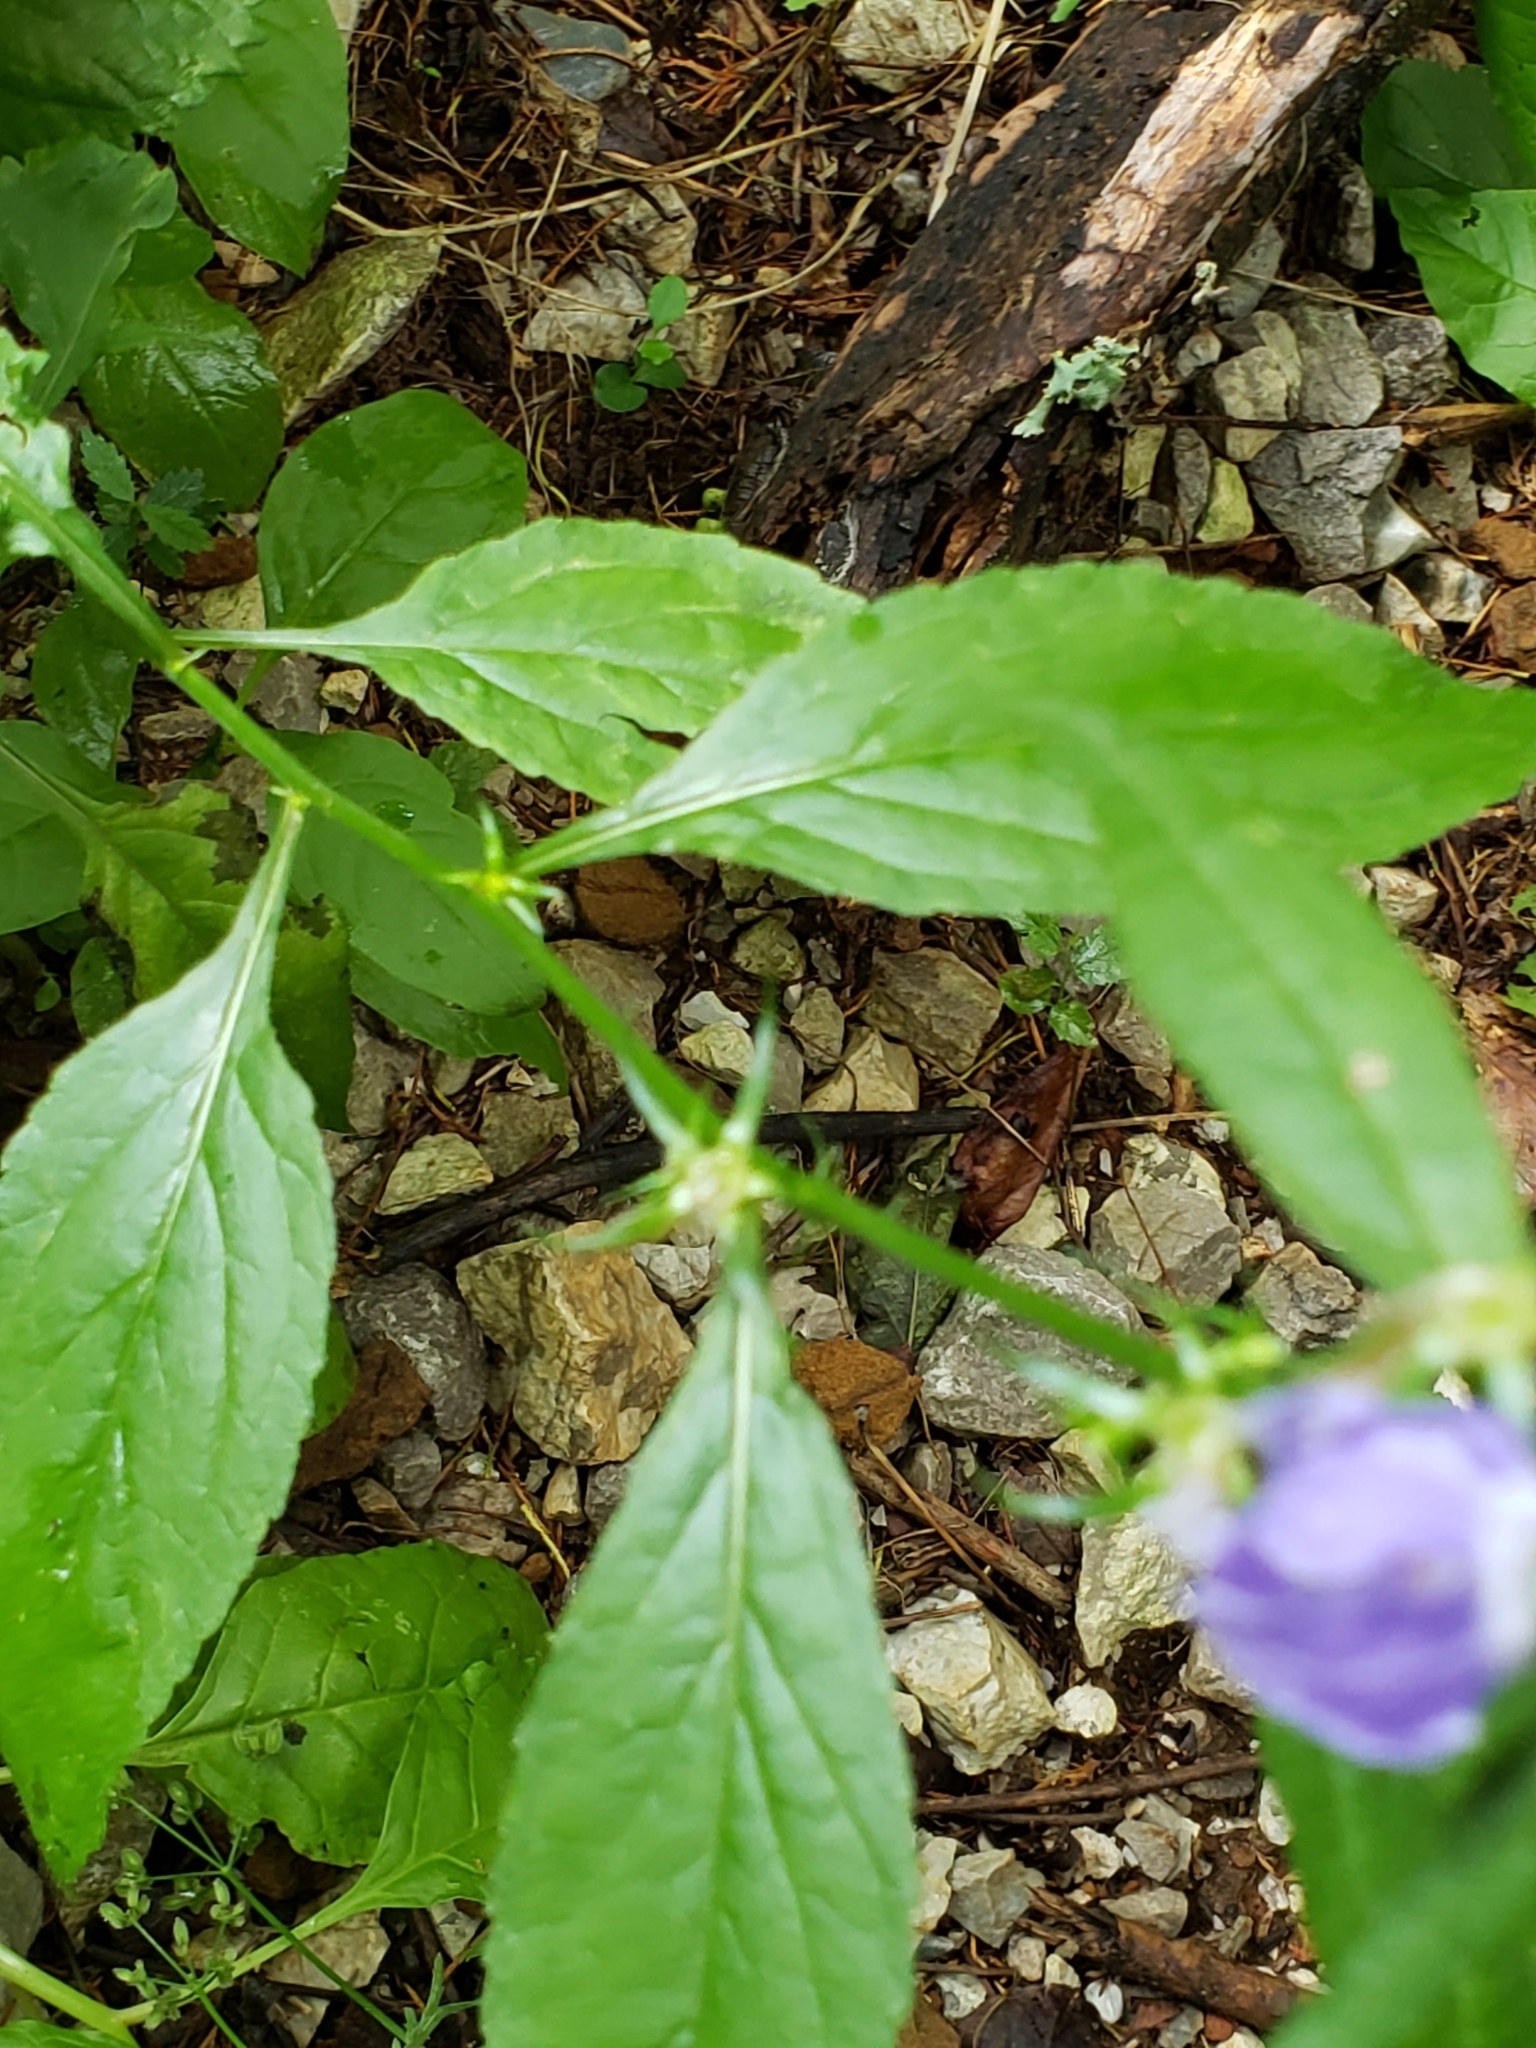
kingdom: Plantae
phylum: Tracheophyta
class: Magnoliopsida
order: Asterales
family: Campanulaceae
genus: Campanulastrum
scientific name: Campanulastrum americanum
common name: American bellflower
